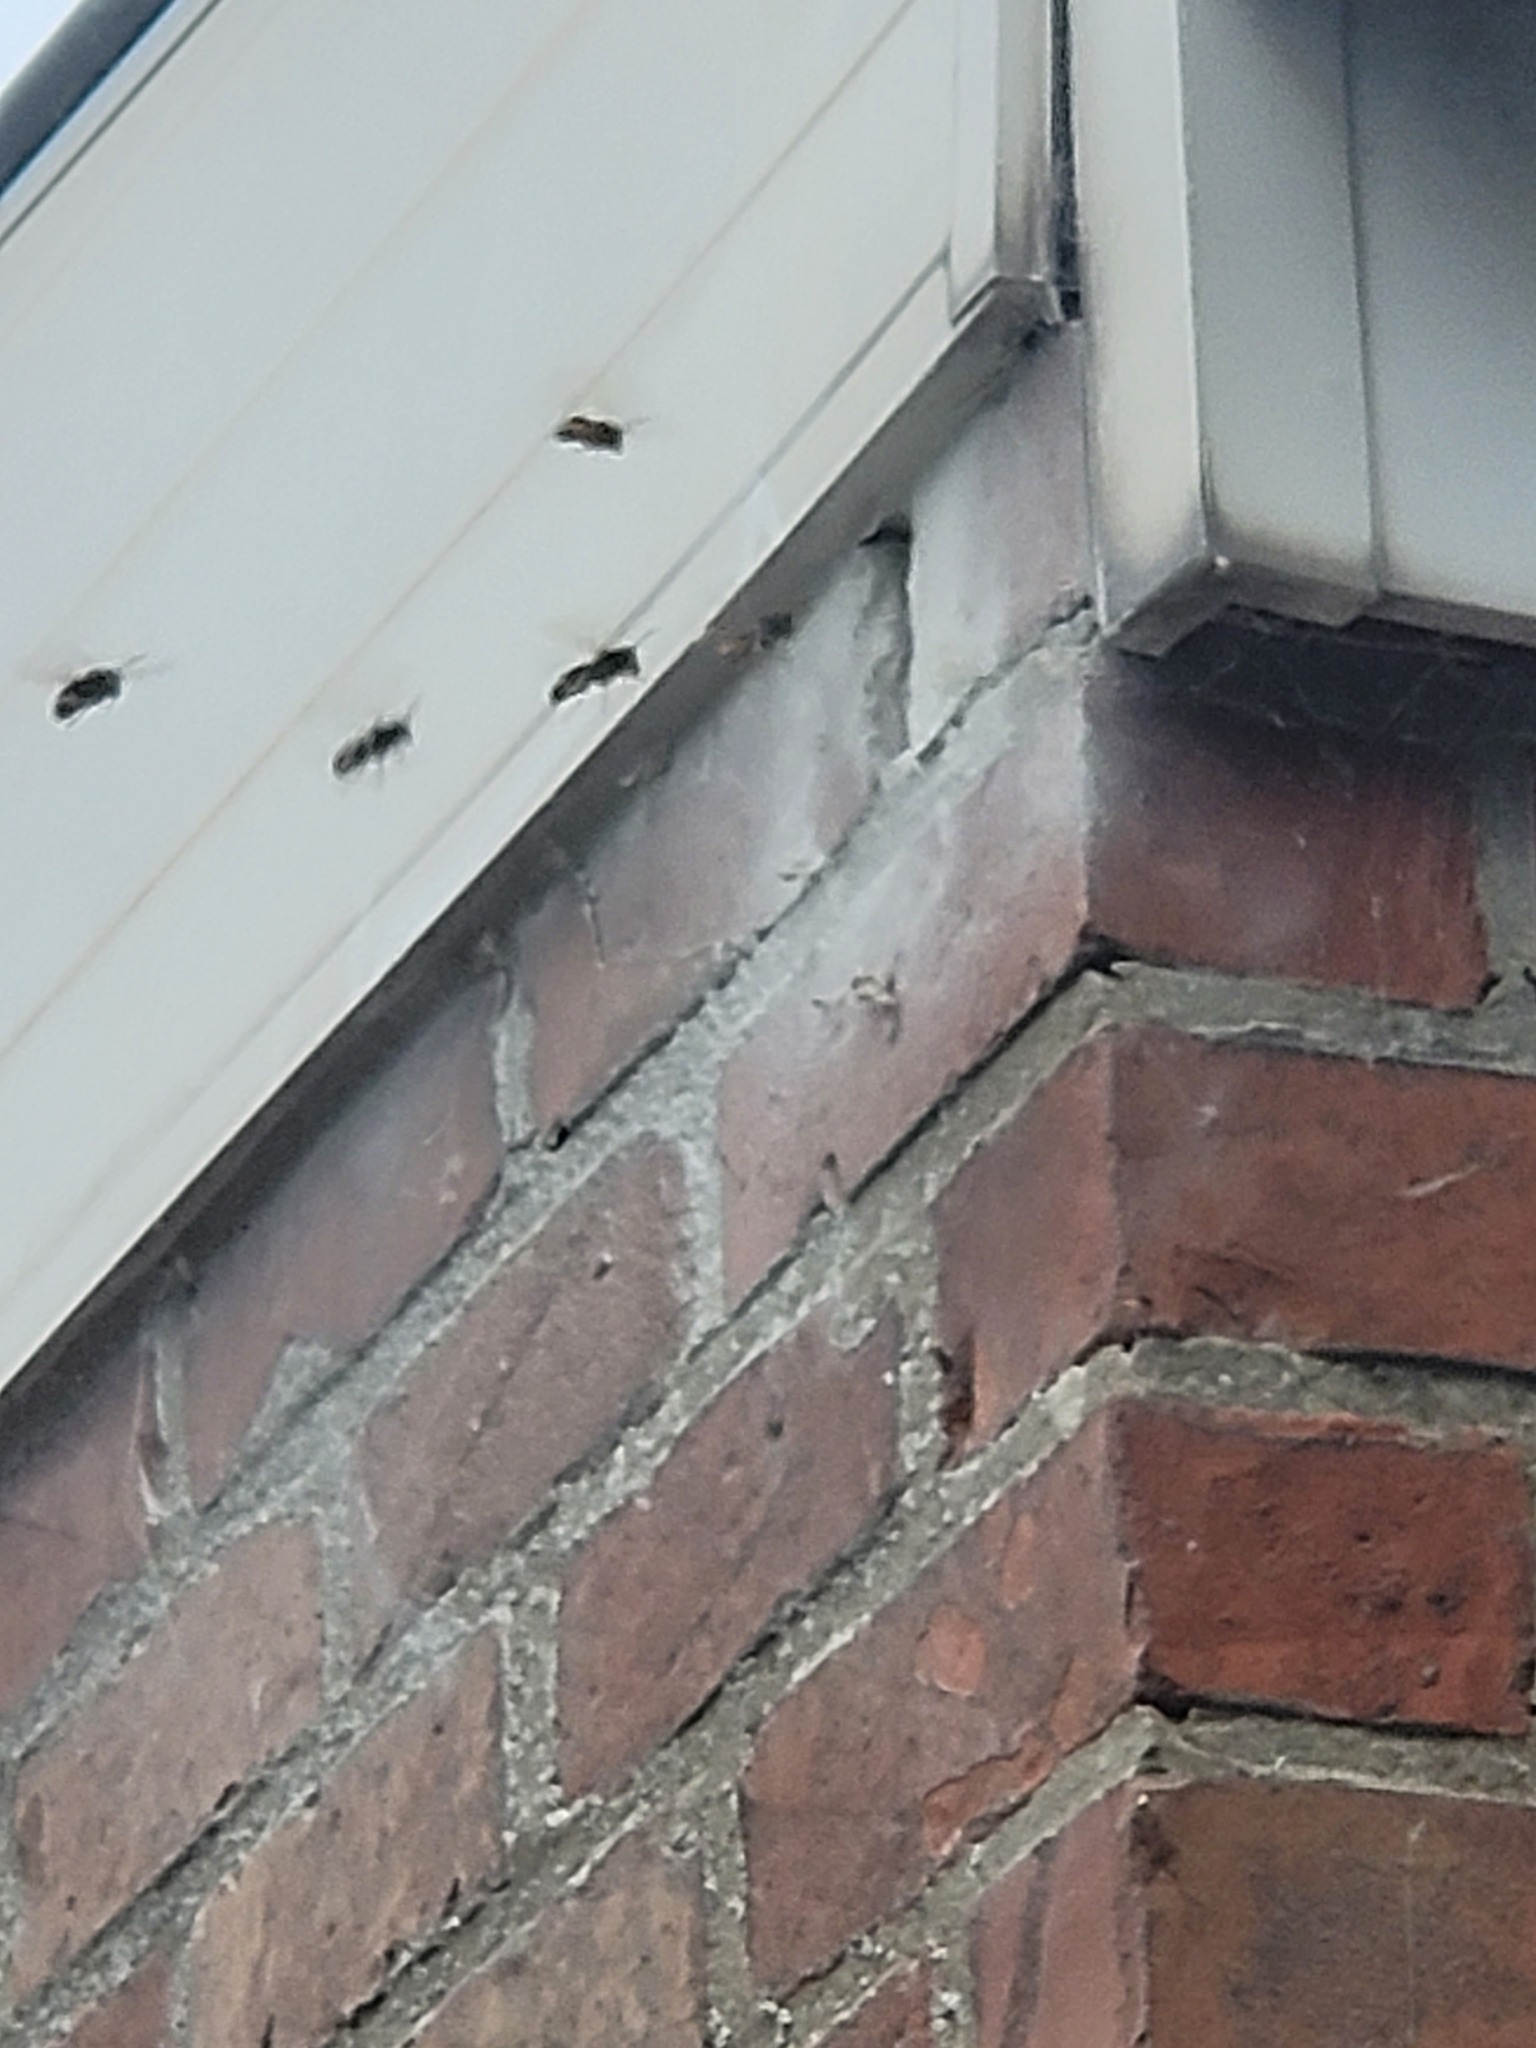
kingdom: Animalia
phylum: Arthropoda
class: Insecta
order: Hymenoptera
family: Vespidae
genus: Vespa
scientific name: Vespa velutina
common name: Asian hornet
